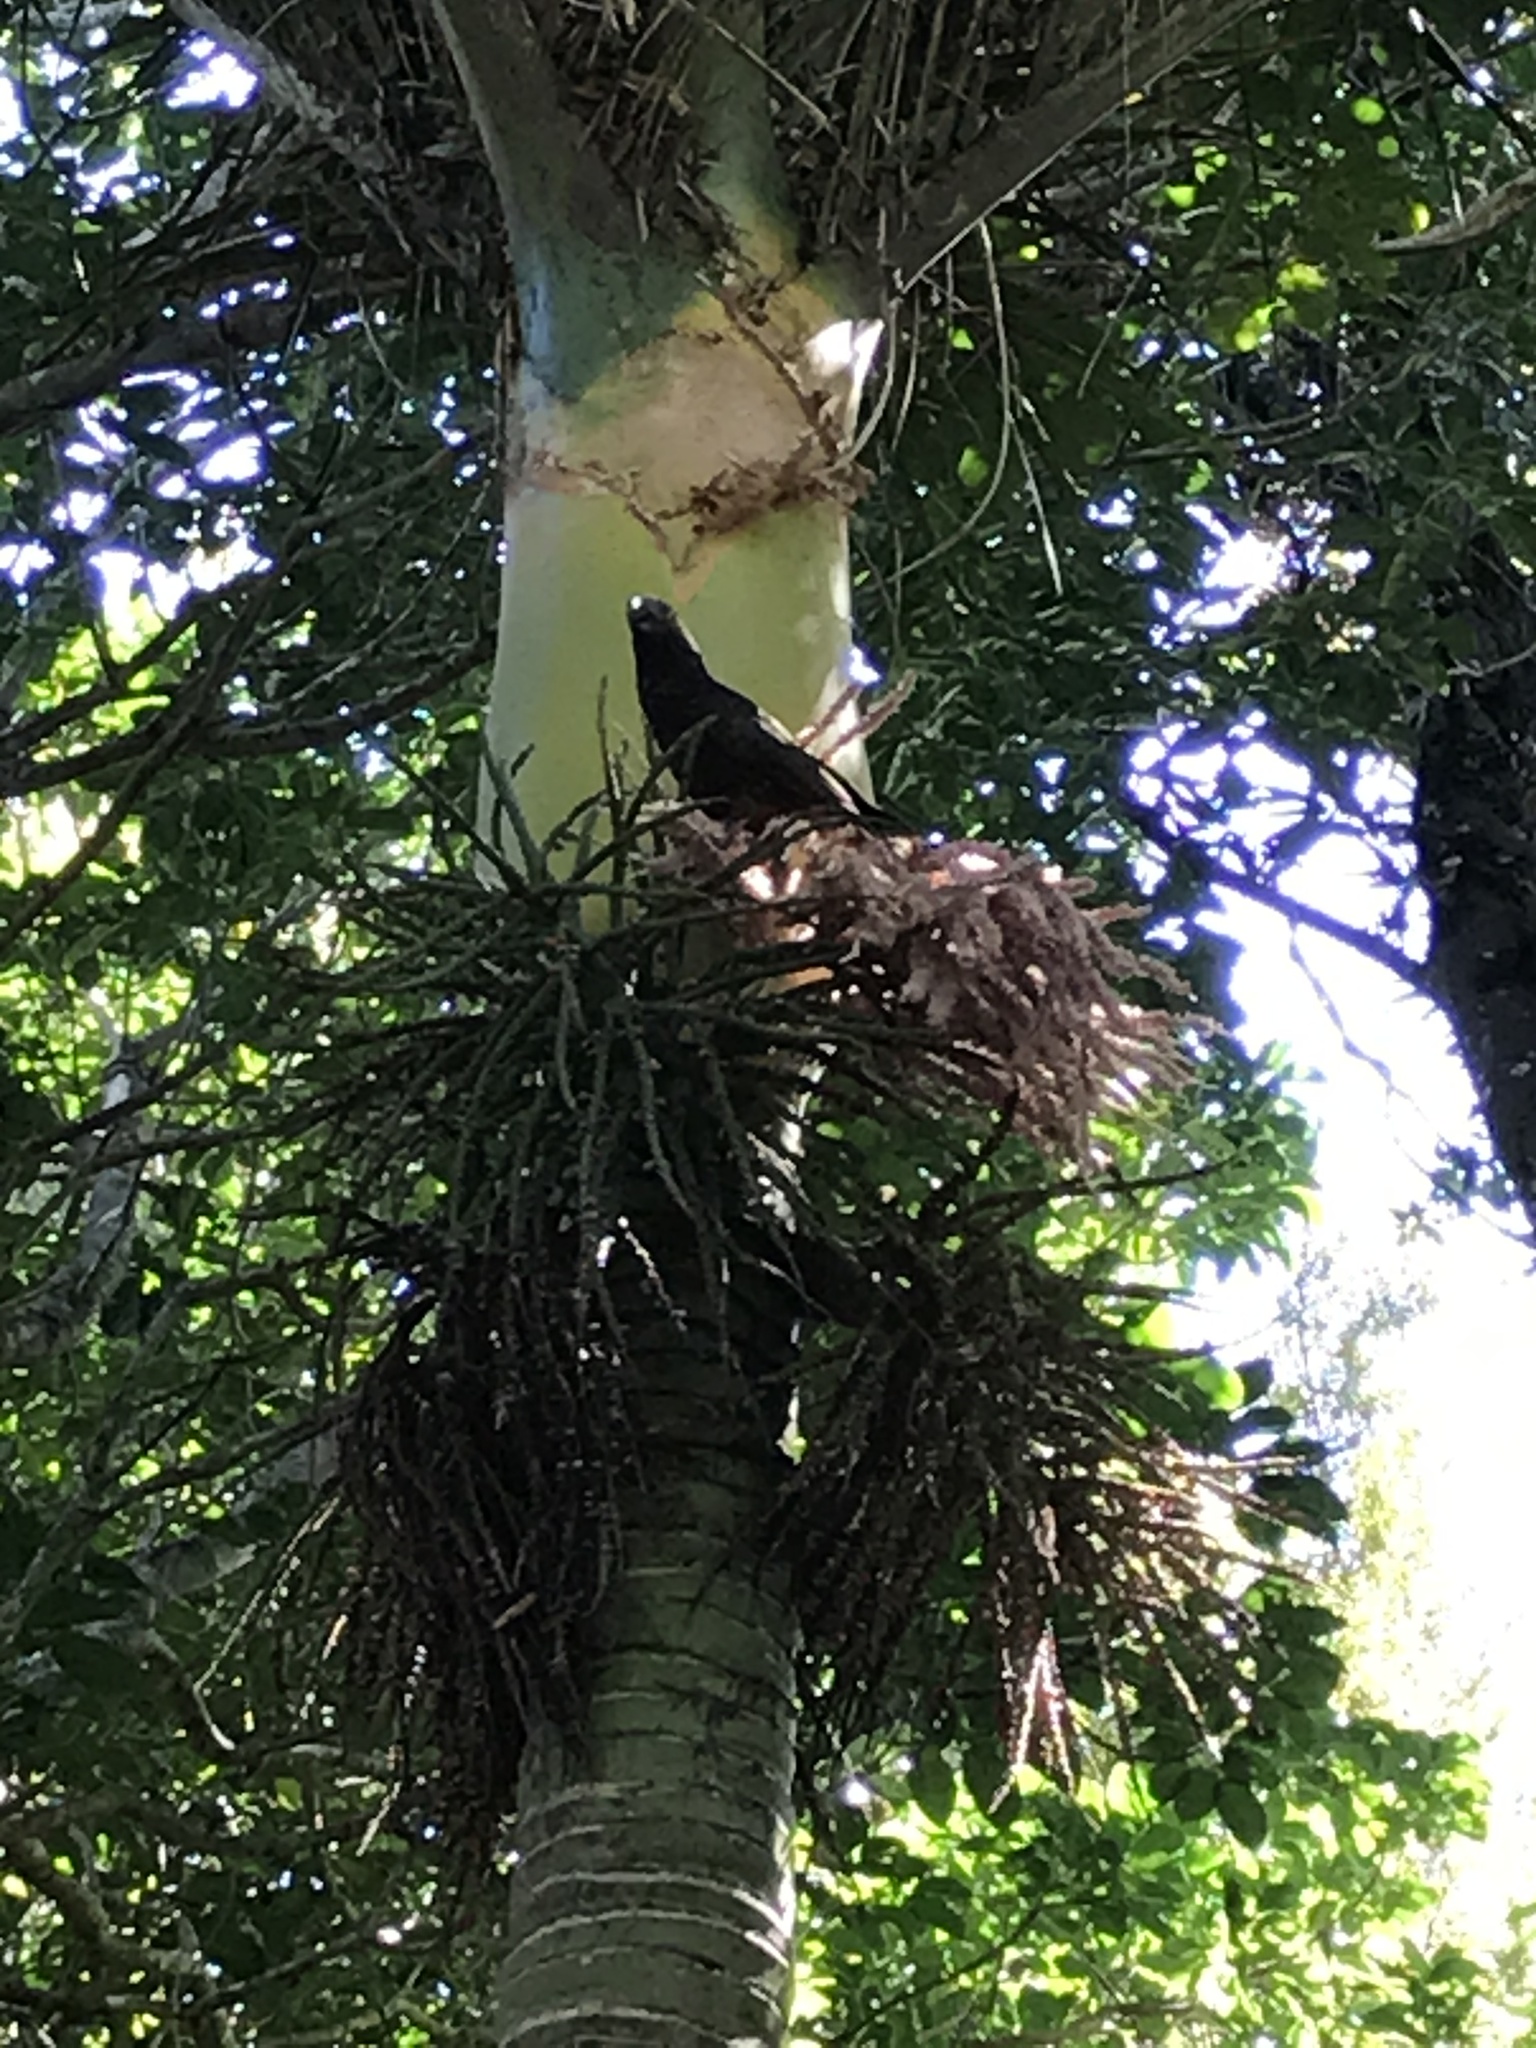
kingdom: Animalia
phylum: Chordata
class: Aves
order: Psittaciformes
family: Psittacidae
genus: Nestor
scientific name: Nestor meridionalis
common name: New zealand kaka
